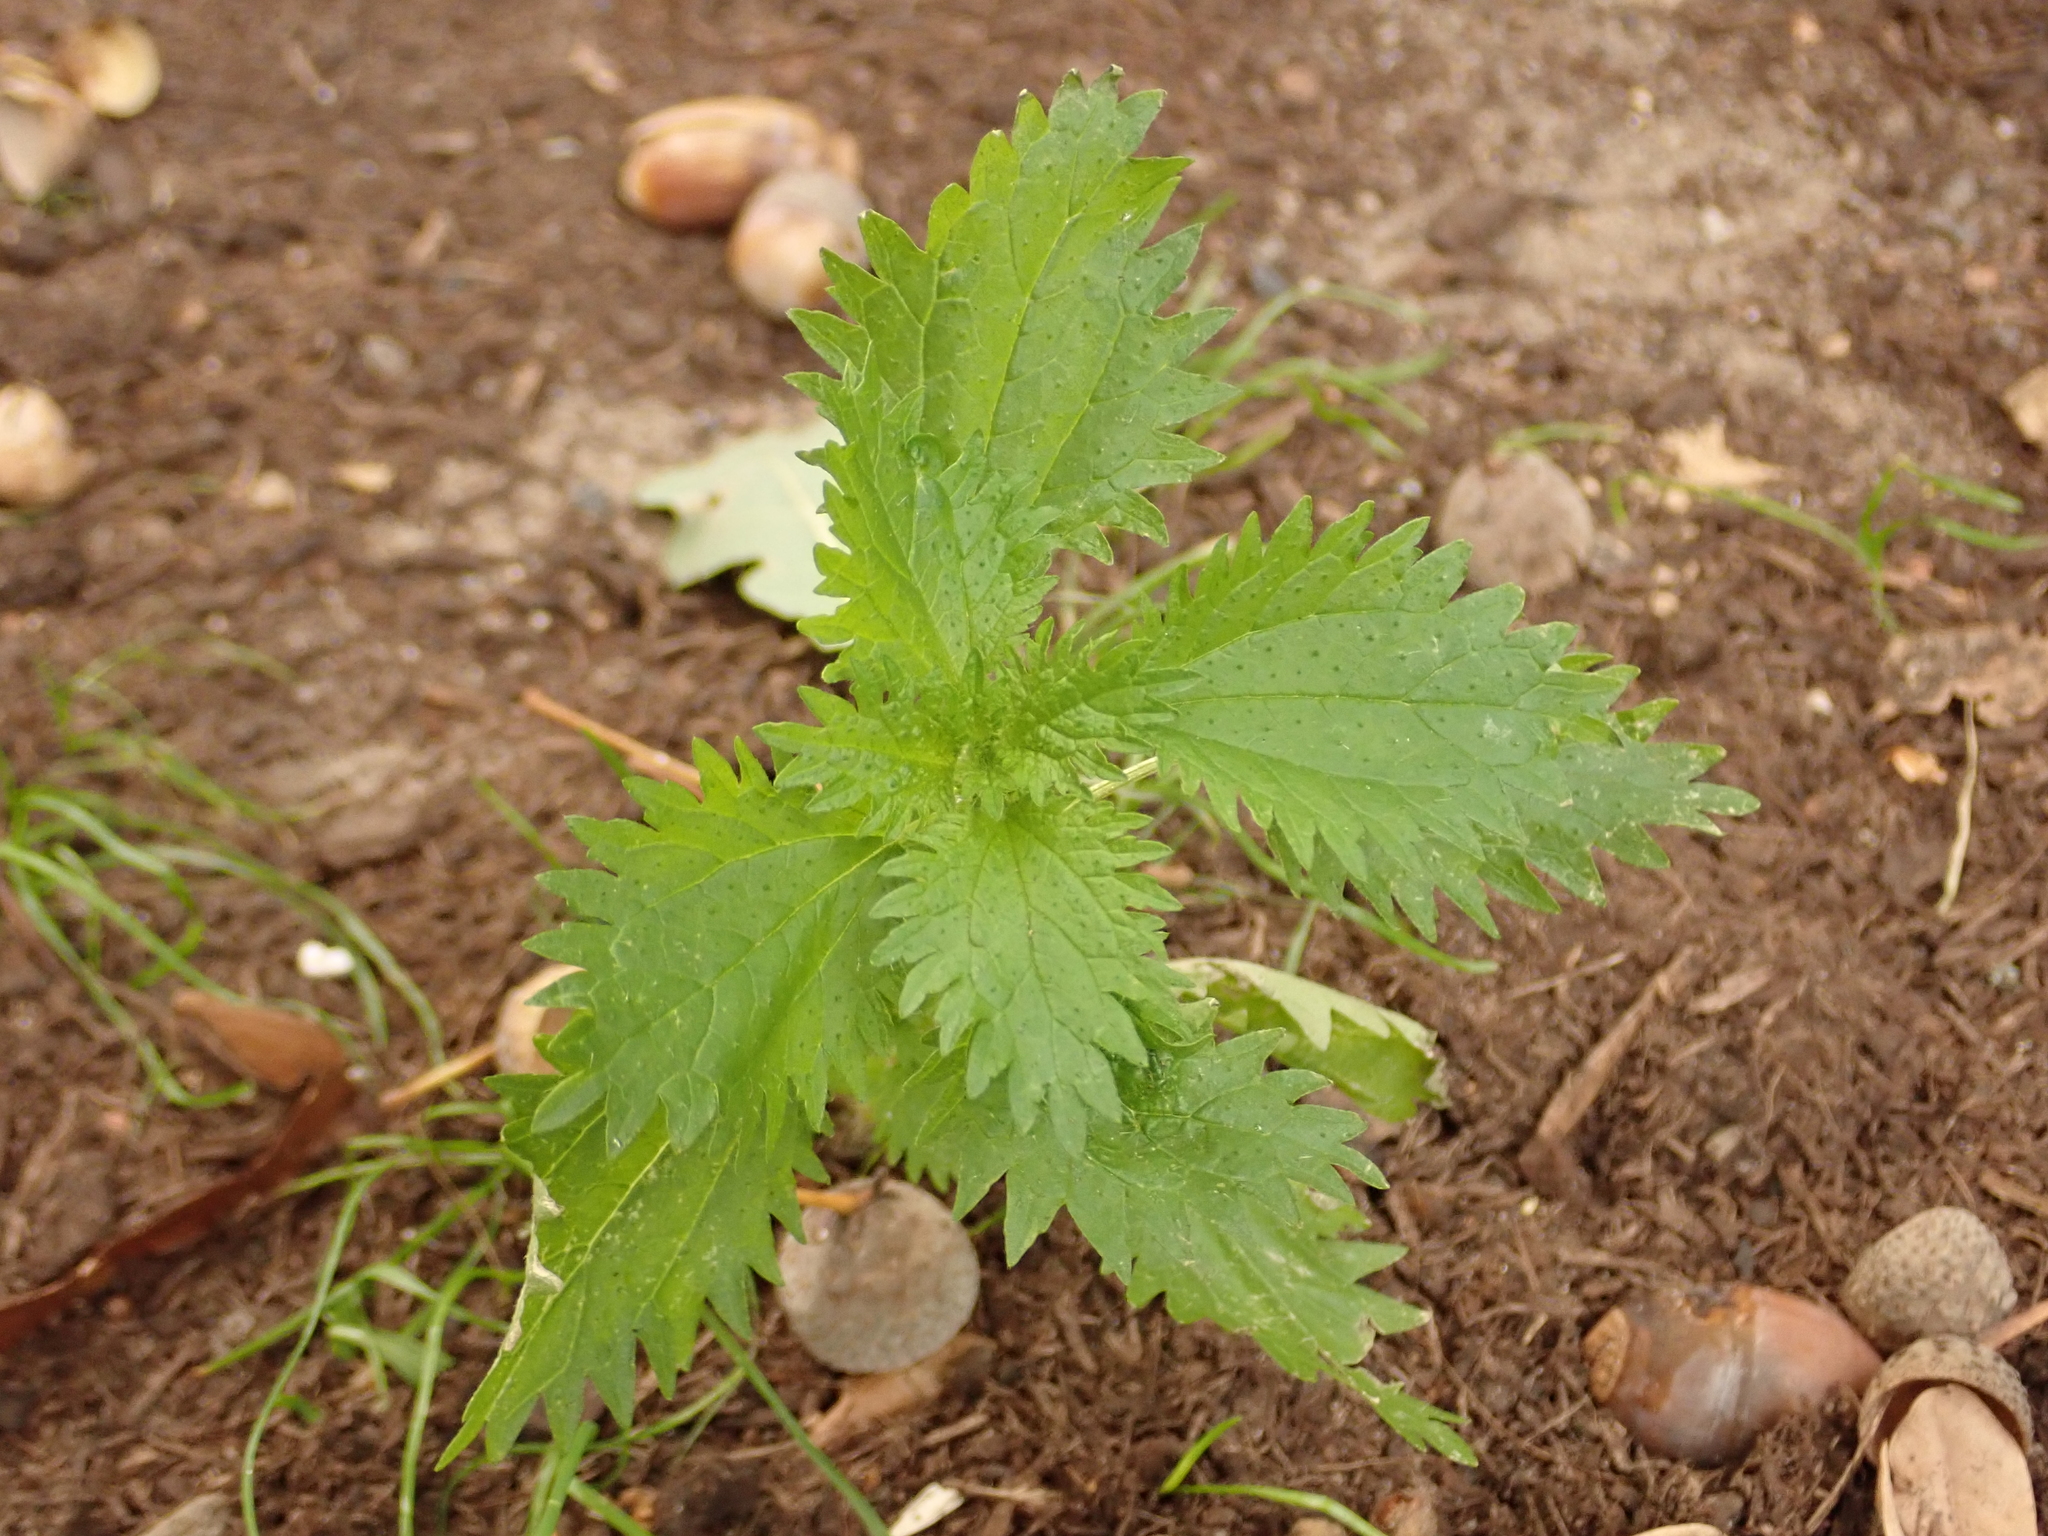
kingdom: Plantae
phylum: Tracheophyta
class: Magnoliopsida
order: Rosales
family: Urticaceae
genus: Urtica
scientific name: Urtica urens
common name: Dwarf nettle
